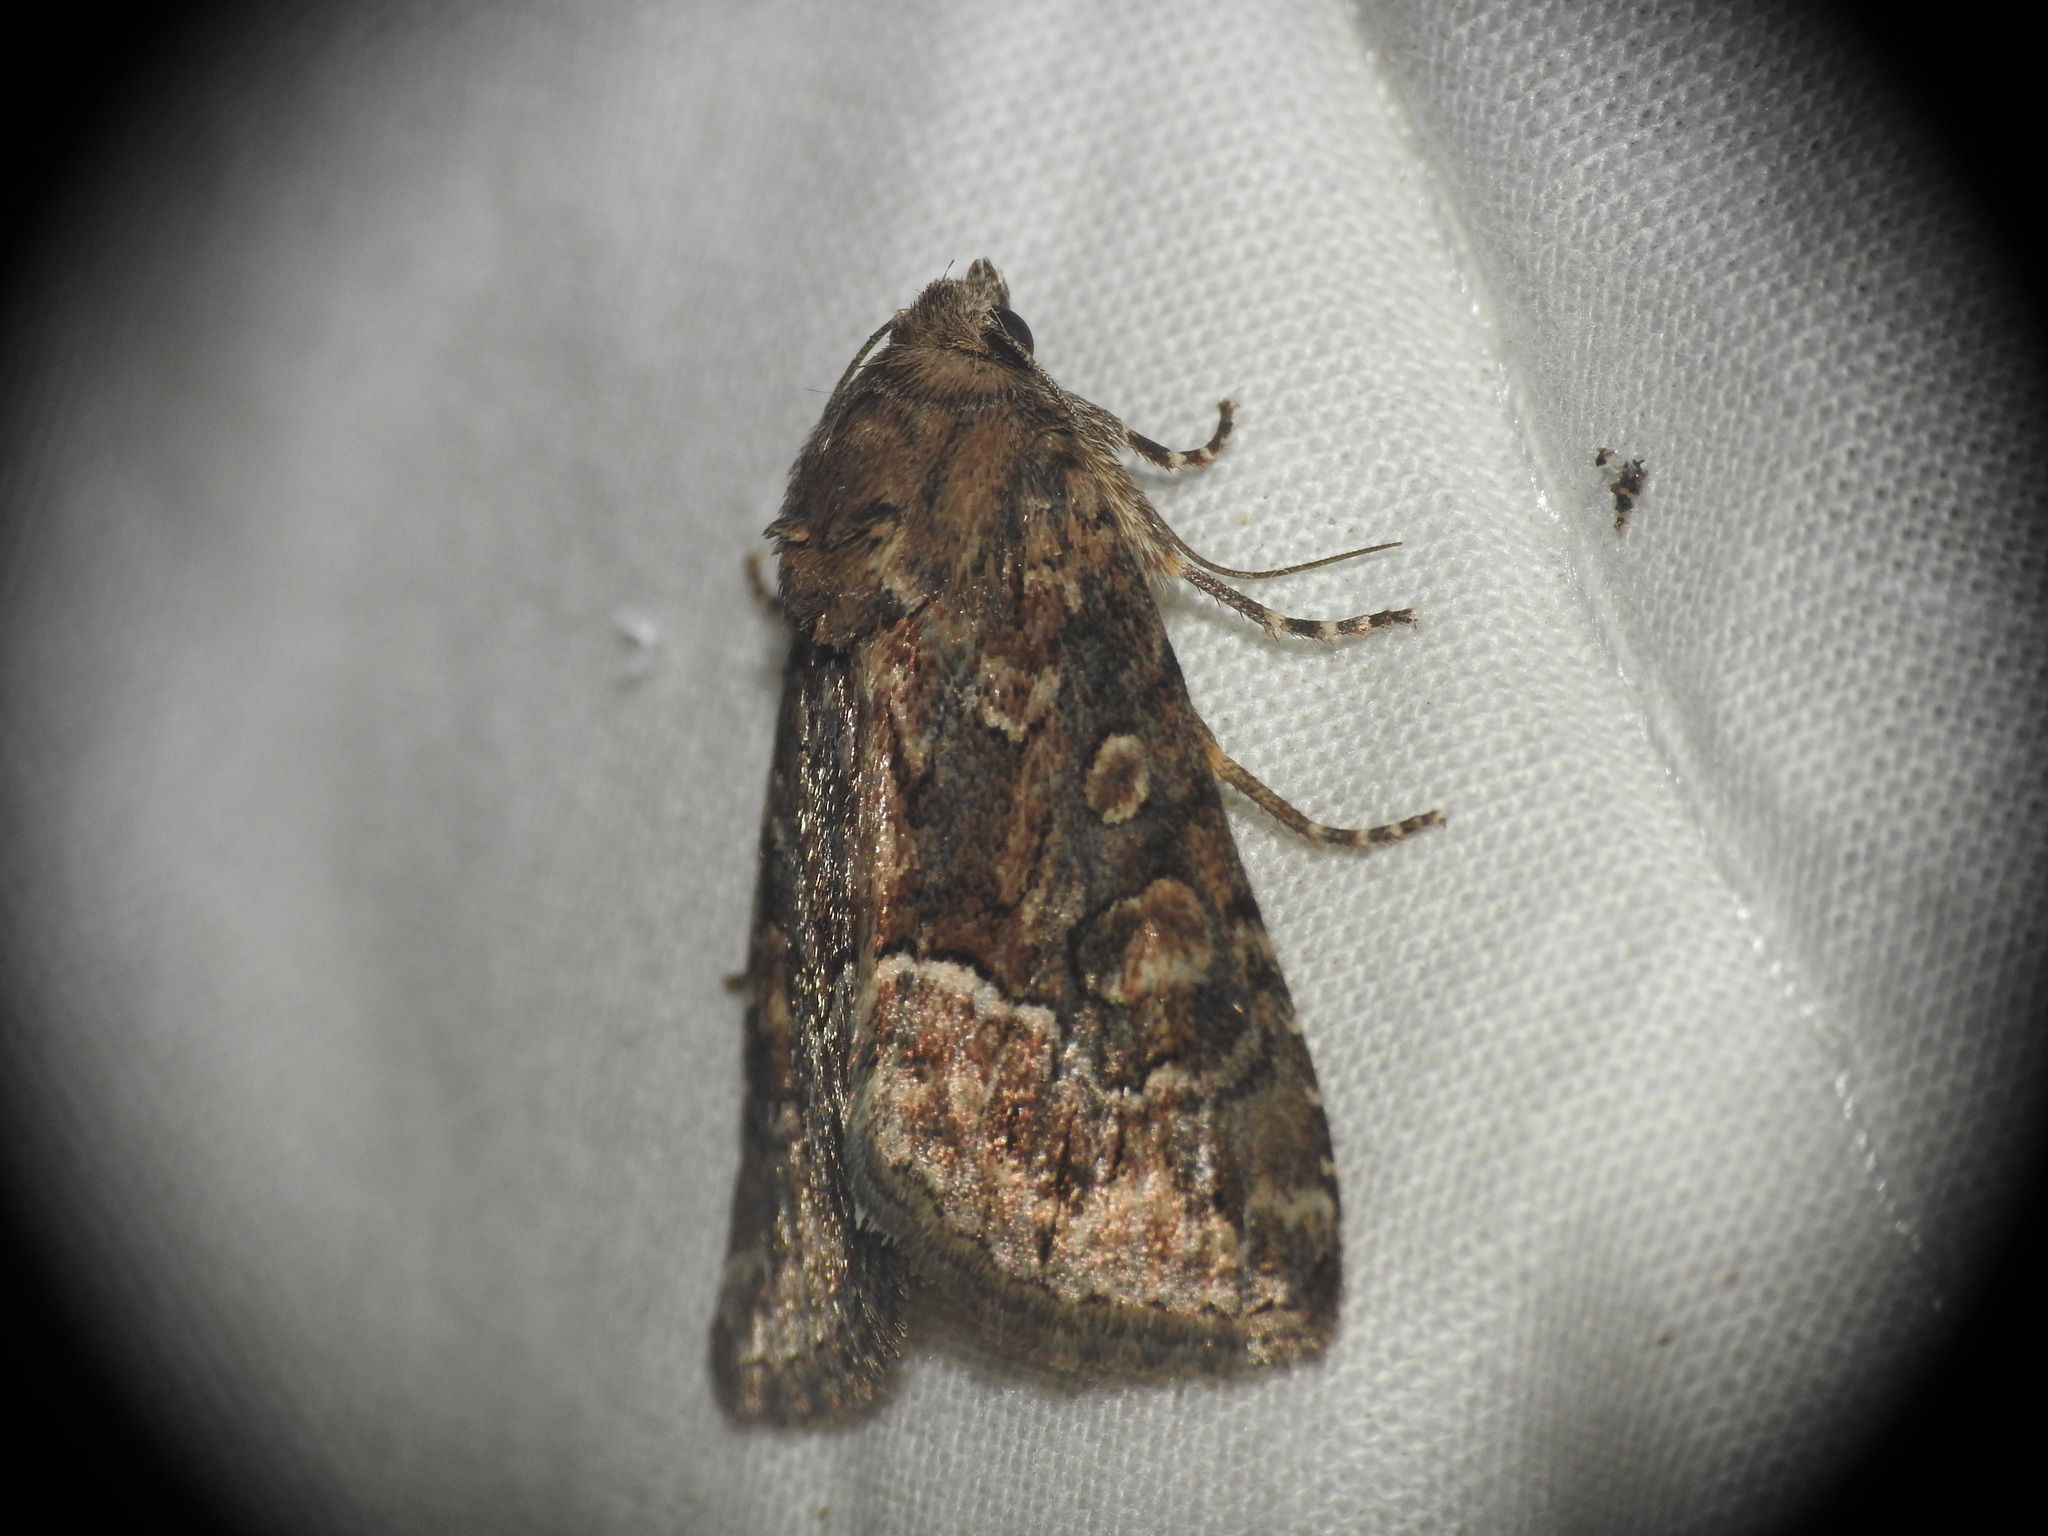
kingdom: Animalia
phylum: Arthropoda
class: Insecta
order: Lepidoptera
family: Noctuidae
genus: Thalpophila
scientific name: Thalpophila matura
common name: Straw underwing
